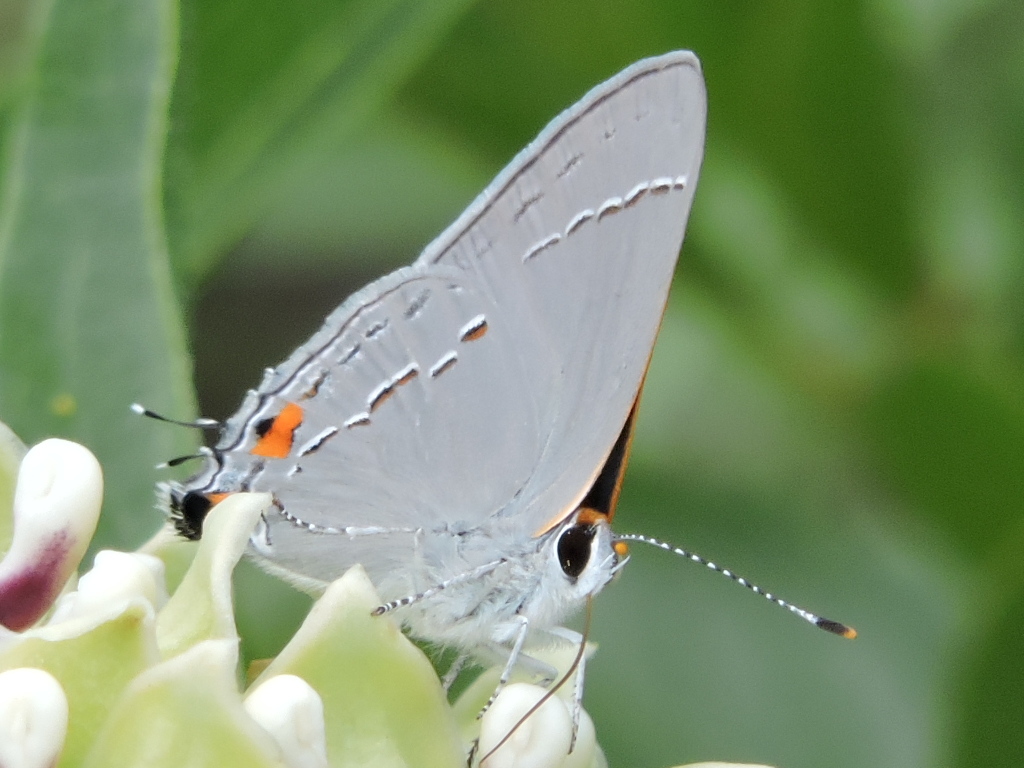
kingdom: Animalia
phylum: Arthropoda
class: Insecta
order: Lepidoptera
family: Lycaenidae
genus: Strymon
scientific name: Strymon melinus
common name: Gray hairstreak
